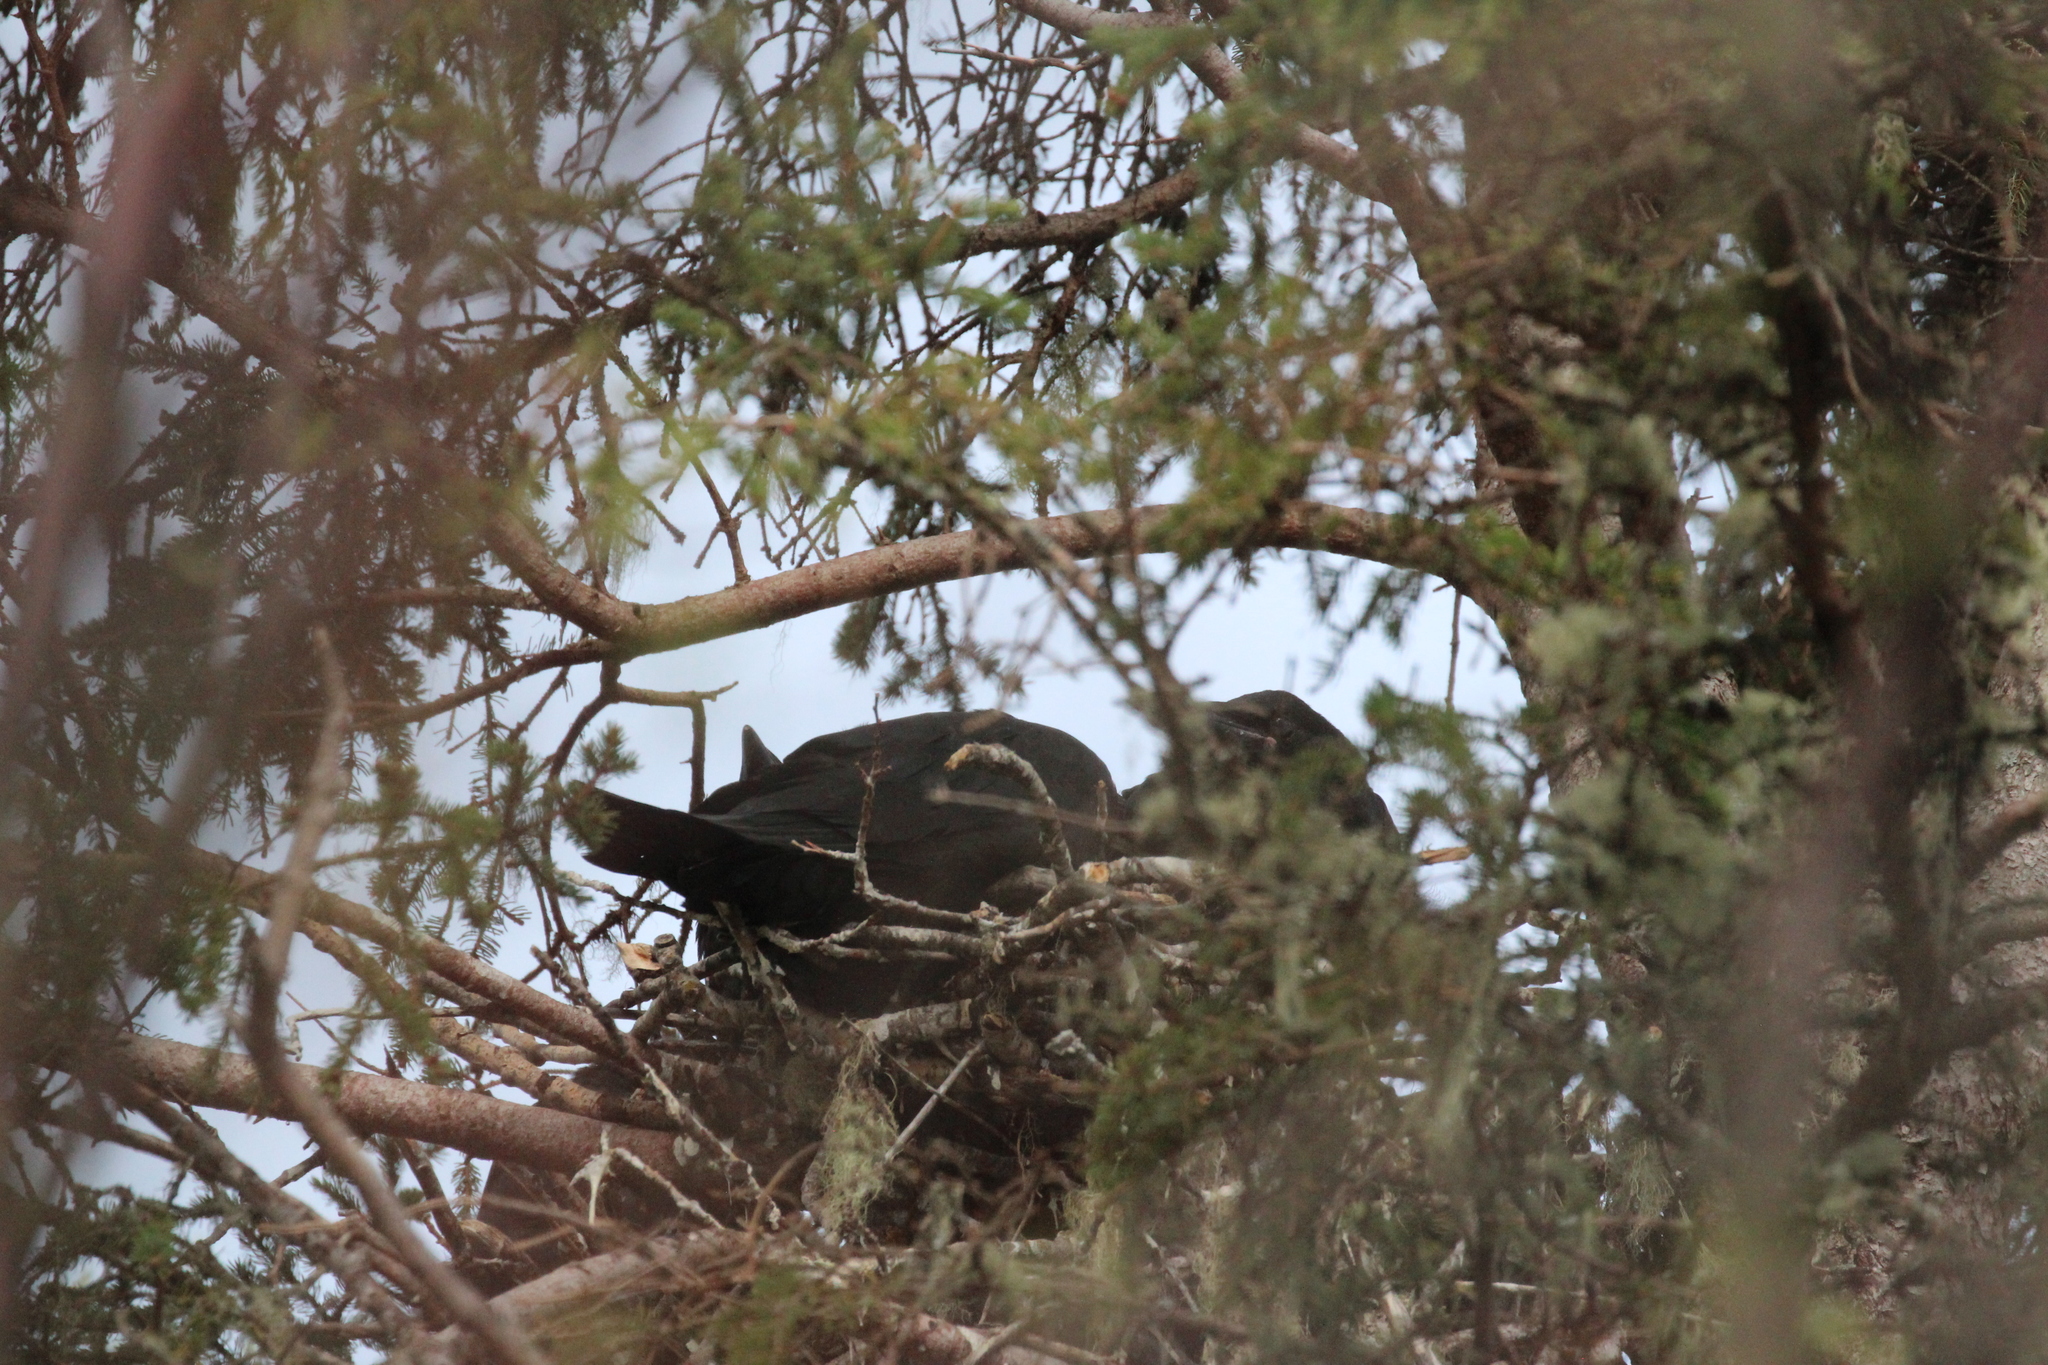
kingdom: Animalia
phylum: Chordata
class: Aves
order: Passeriformes
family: Corvidae
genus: Corvus
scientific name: Corvus corax
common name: Common raven
